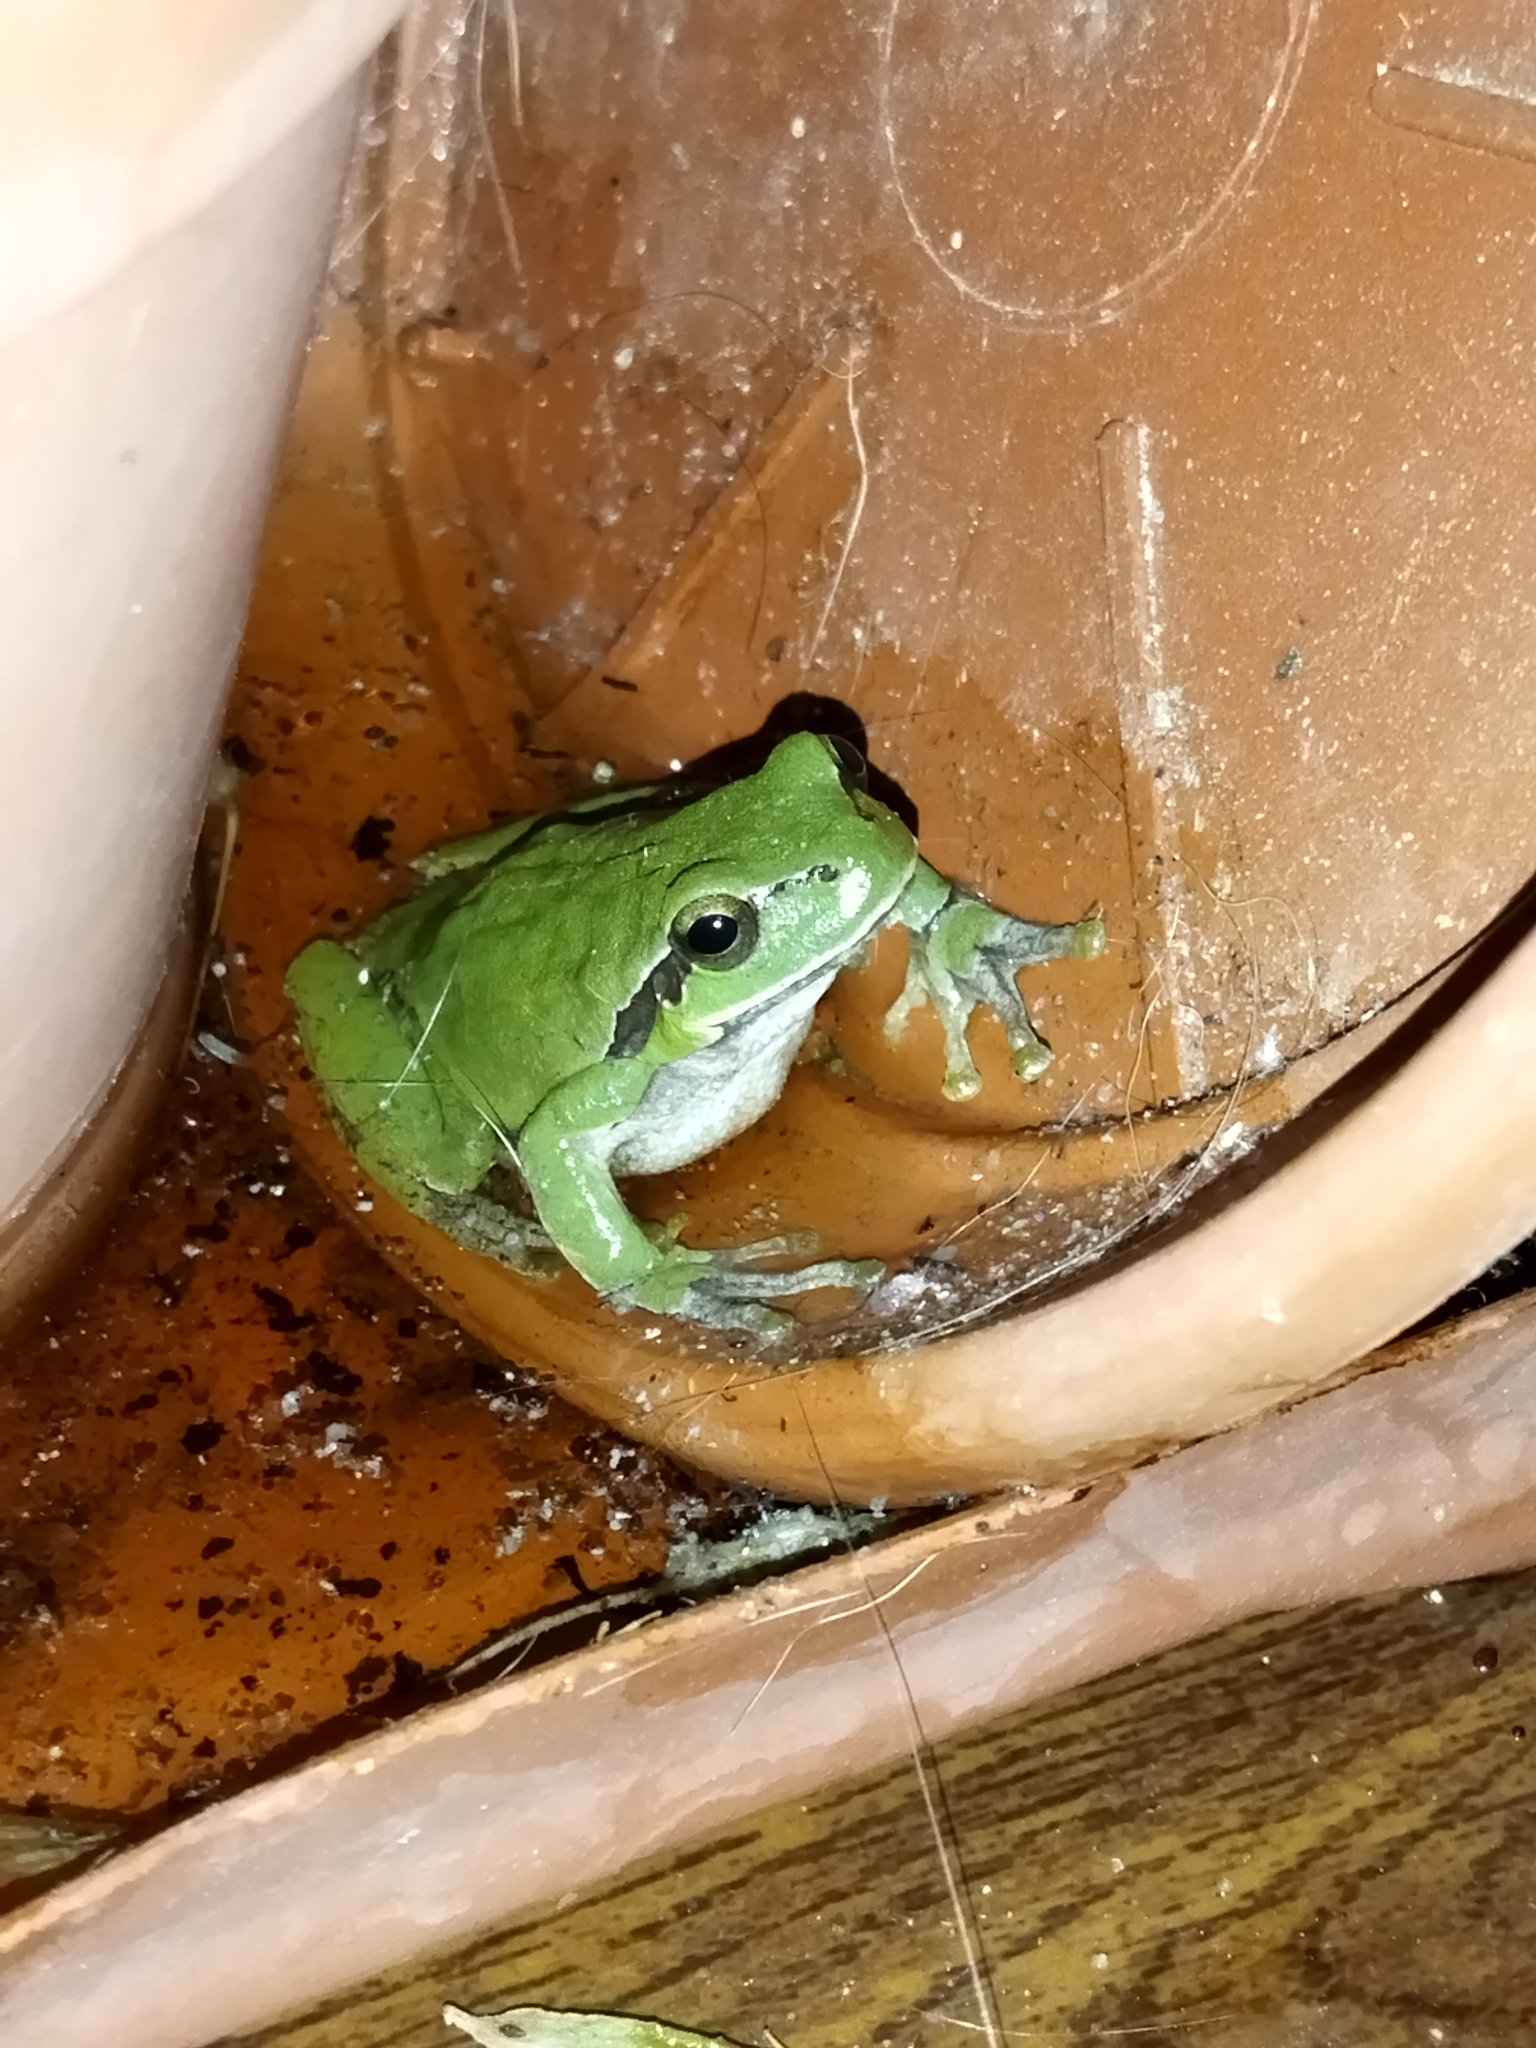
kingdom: Animalia
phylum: Chordata
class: Amphibia
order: Anura
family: Hylidae
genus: Hyla
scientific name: Hyla orientalis
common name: Caucasian treefrog
